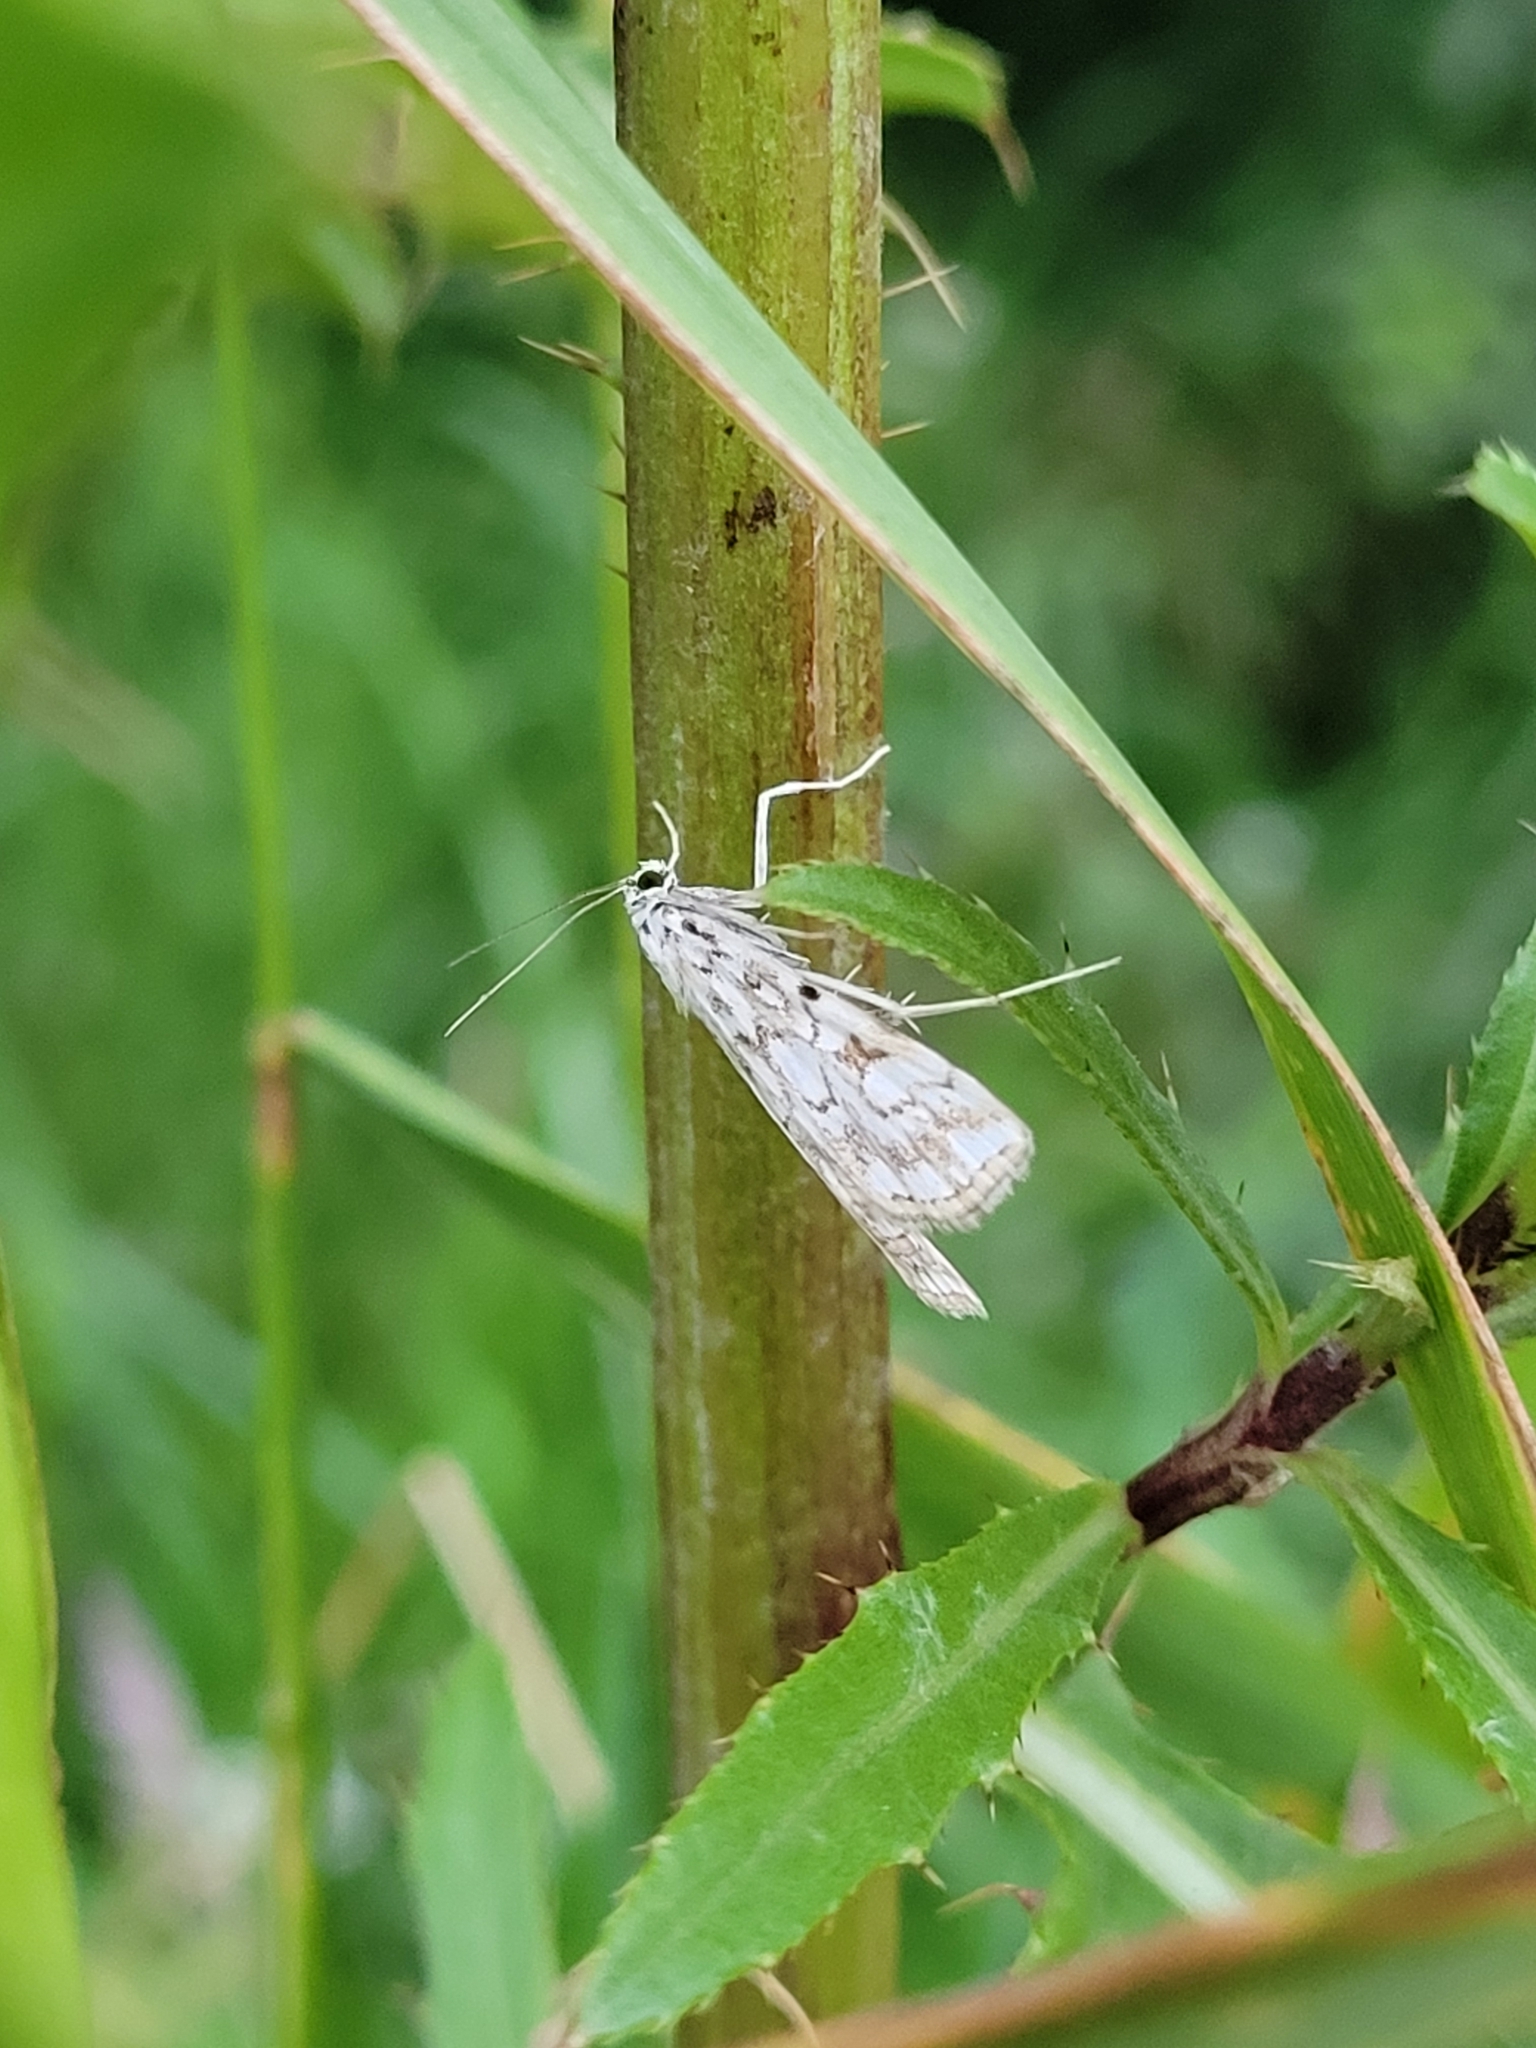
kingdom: Animalia
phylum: Arthropoda
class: Insecta
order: Lepidoptera
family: Crambidae
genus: Elophila
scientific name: Elophila nymphaeata
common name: Brown china-mark
